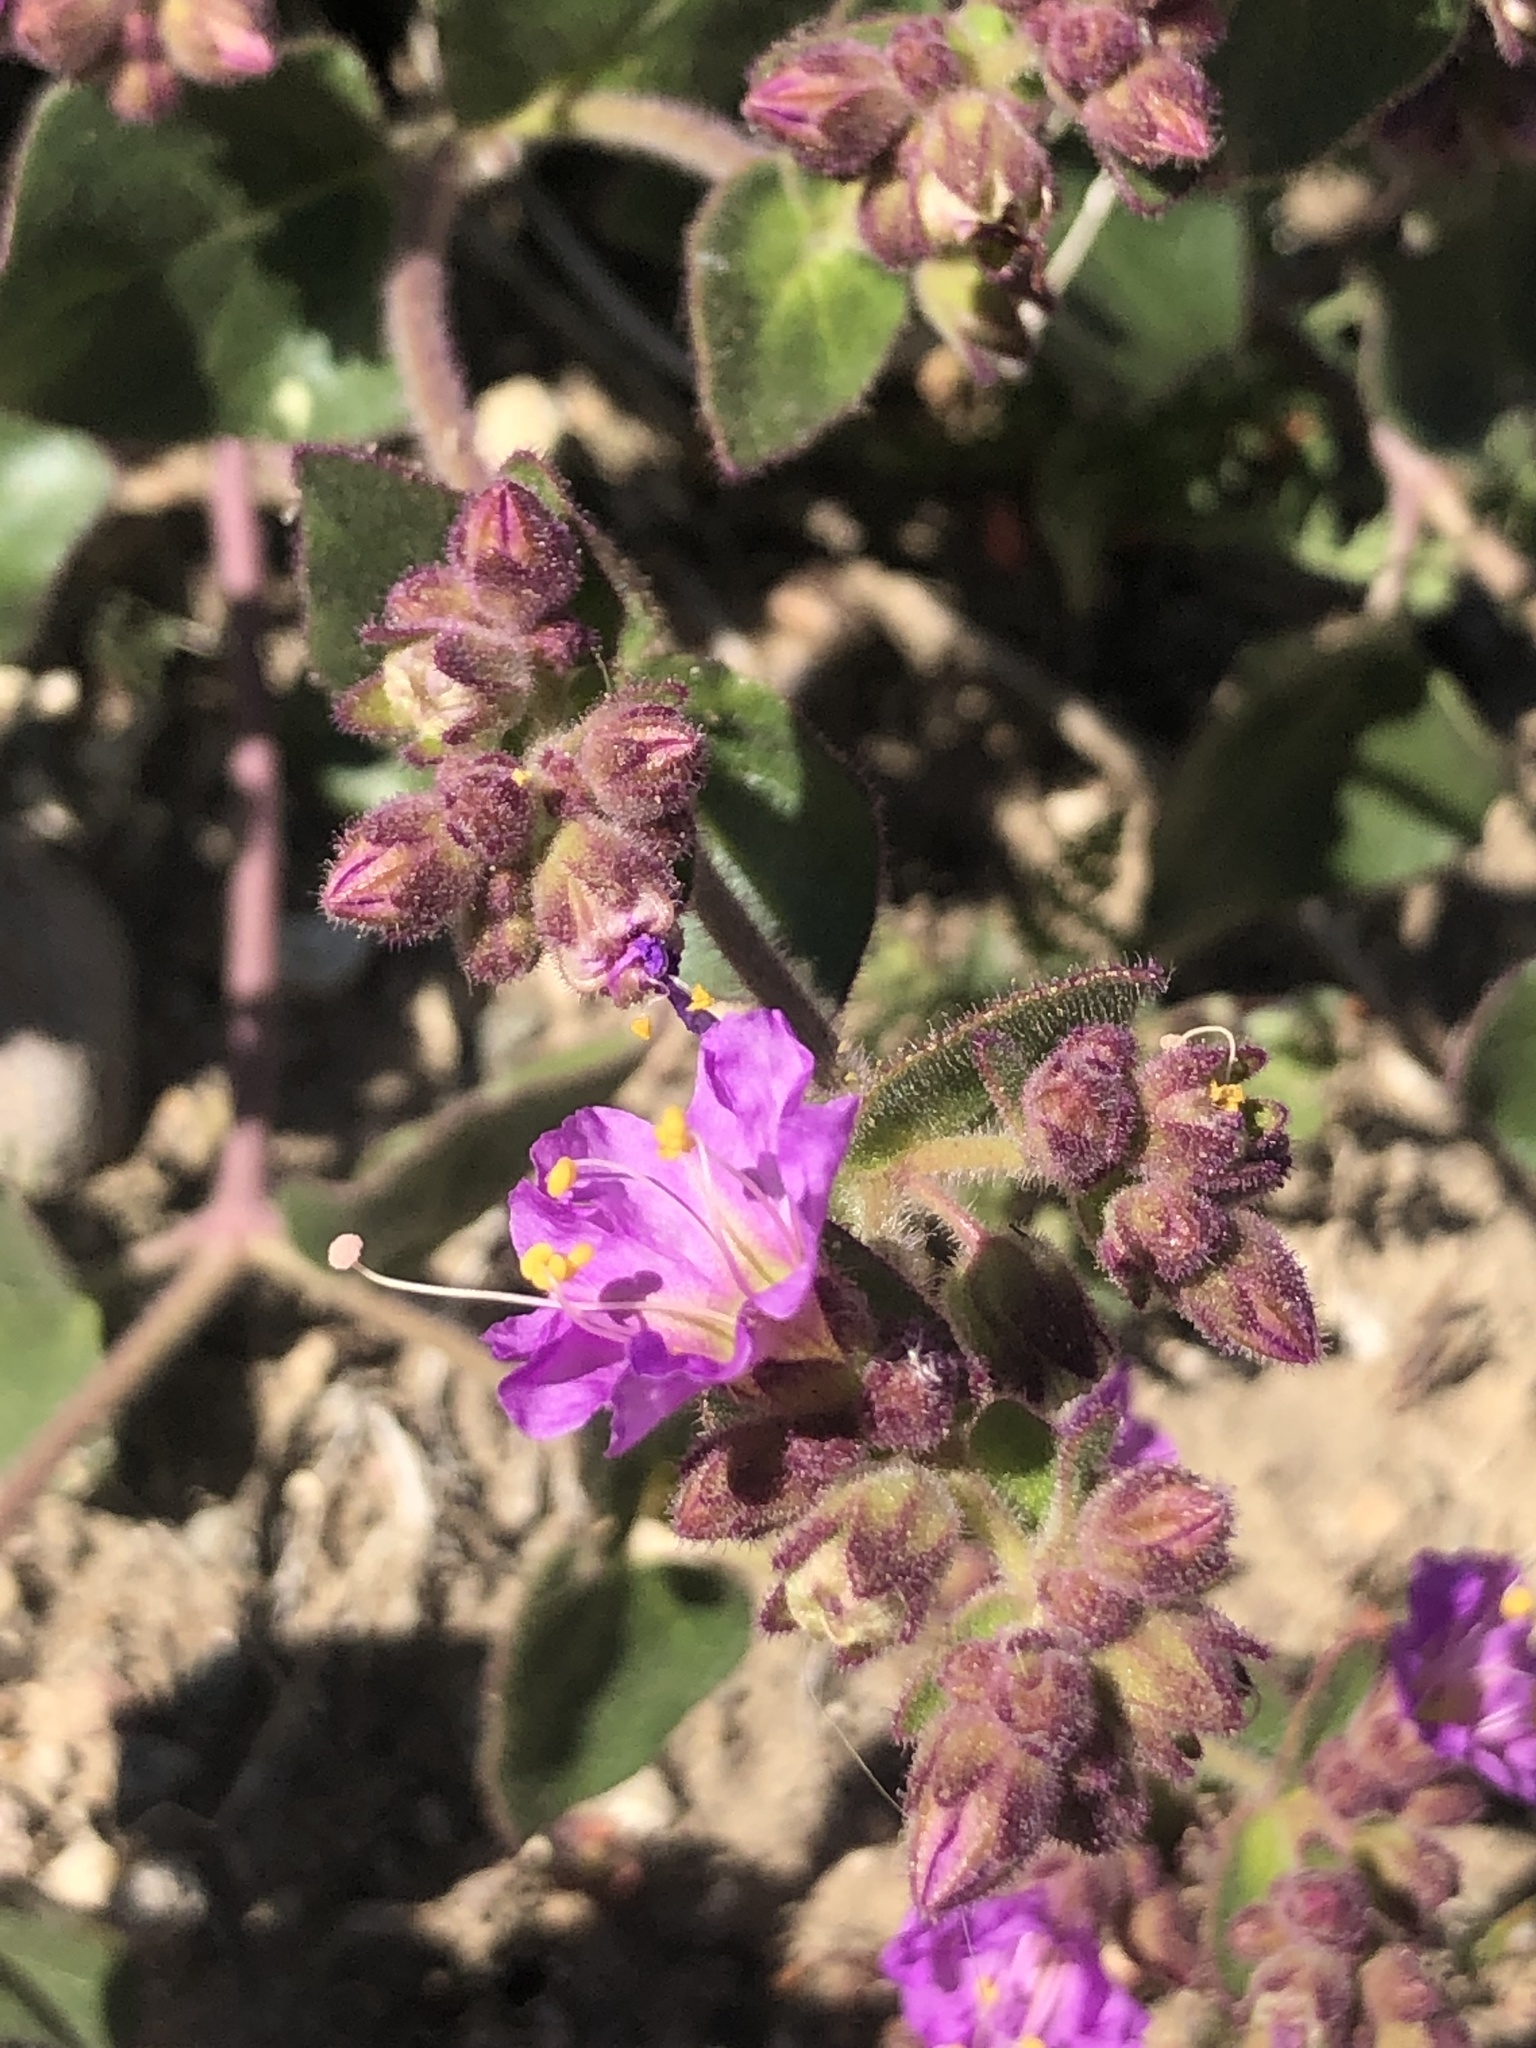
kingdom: Plantae
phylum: Tracheophyta
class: Magnoliopsida
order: Caryophyllales
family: Nyctaginaceae
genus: Mirabilis
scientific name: Mirabilis laevis
